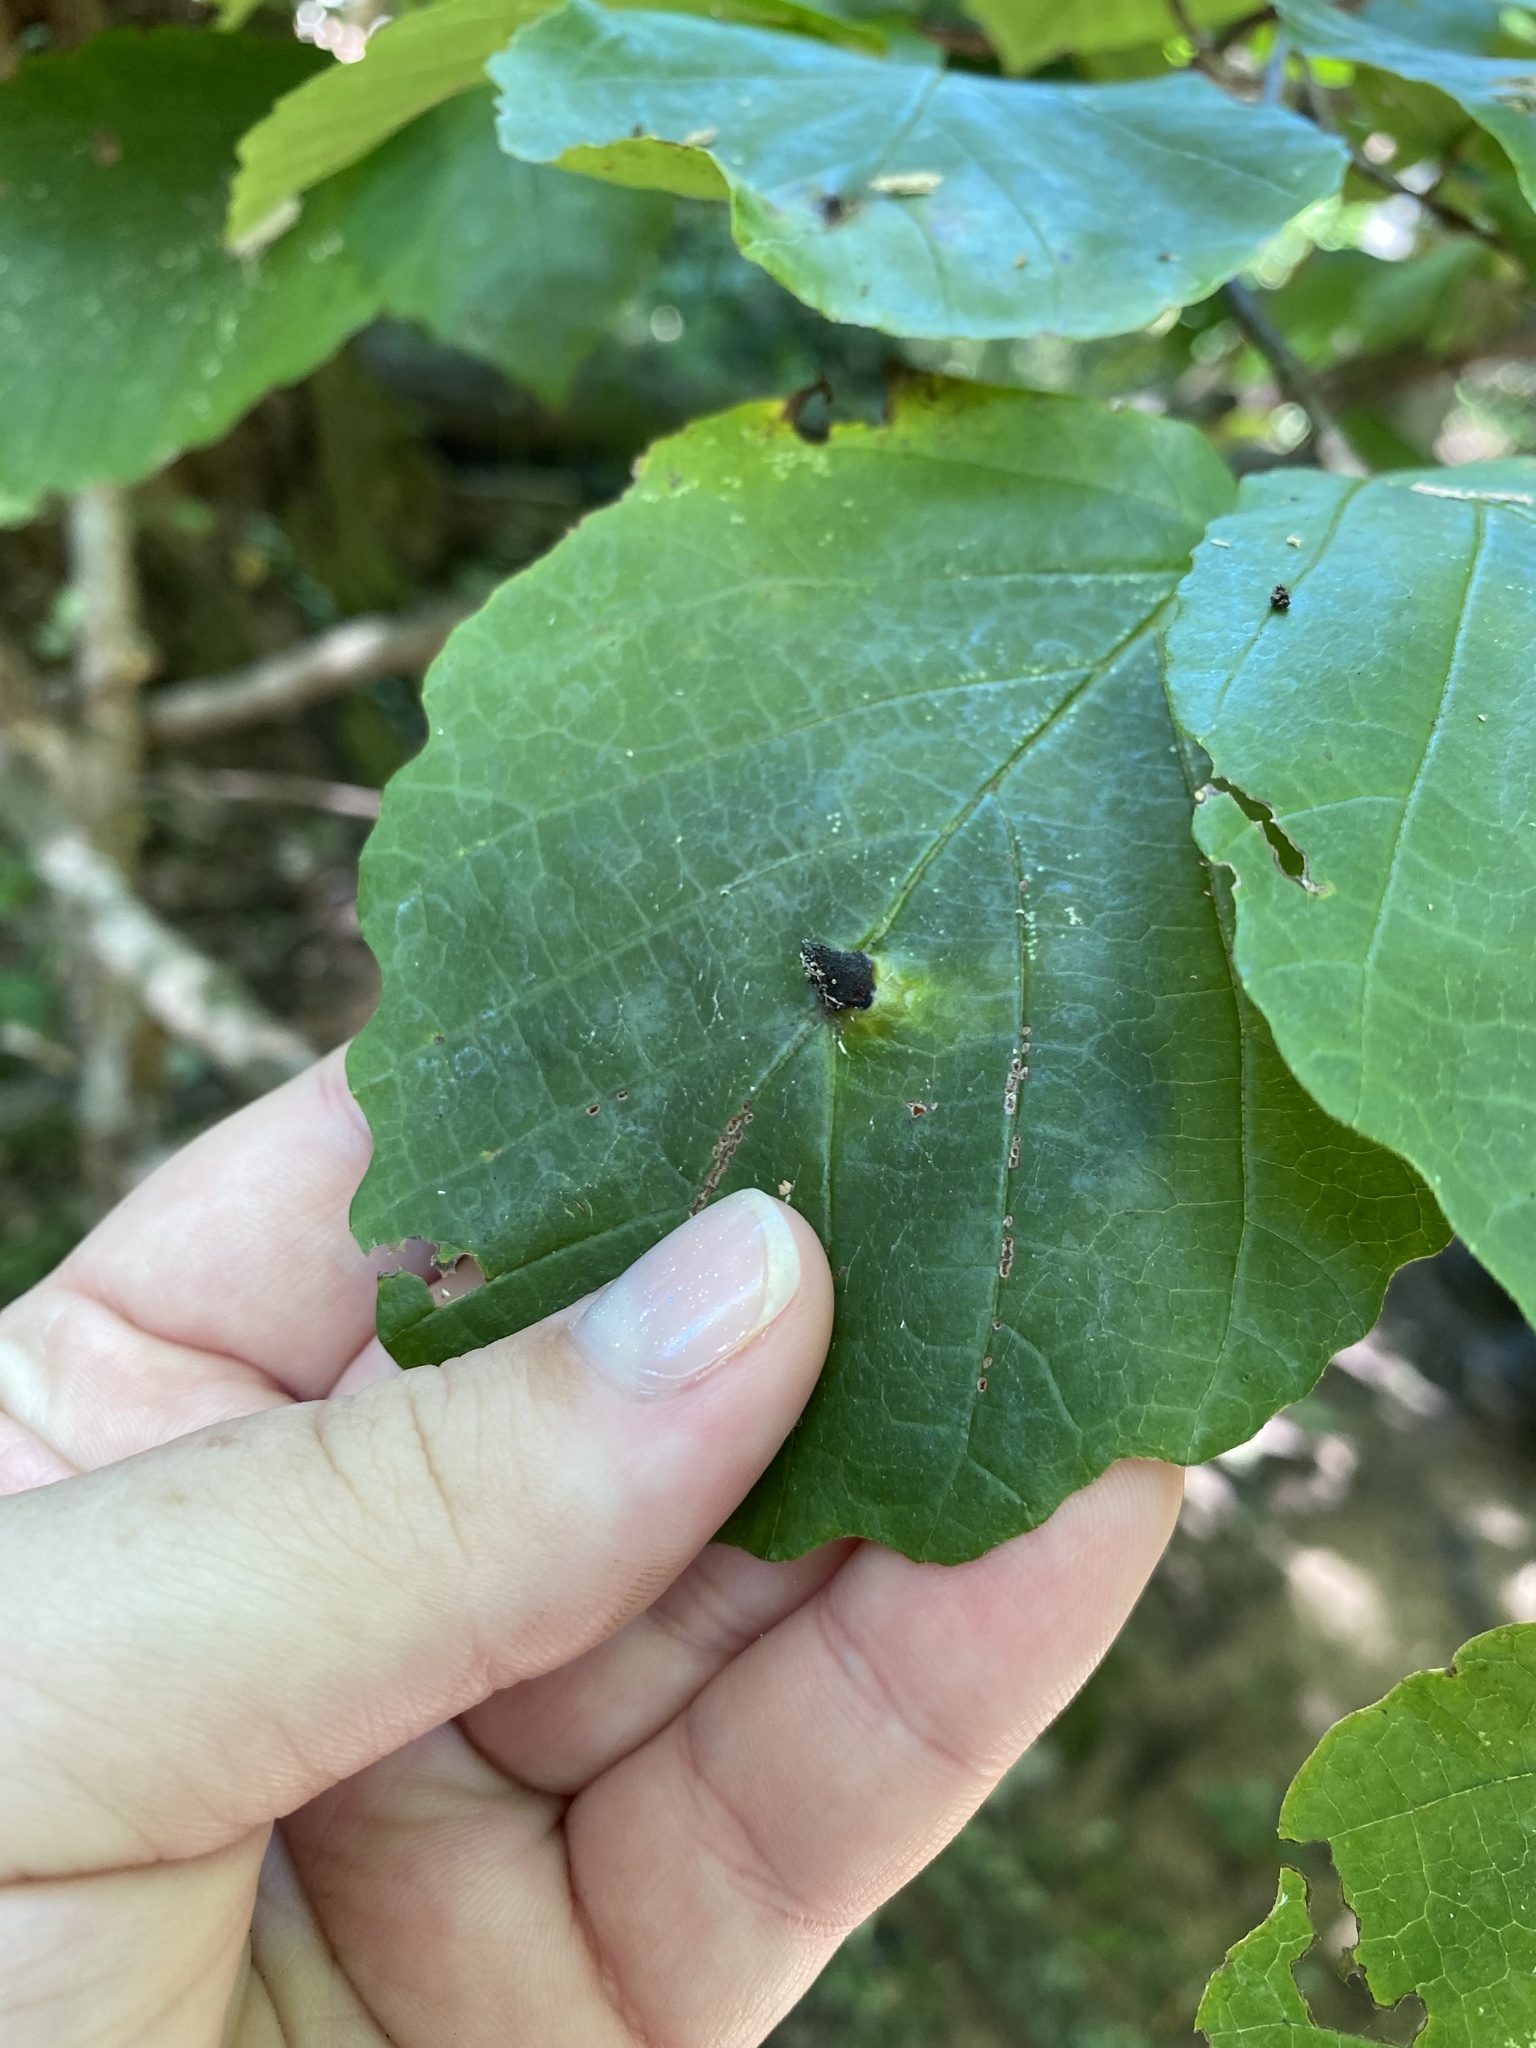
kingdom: Animalia
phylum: Arthropoda
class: Insecta
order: Hemiptera
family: Aphididae
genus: Hormaphis
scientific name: Hormaphis hamamelidis
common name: Witch-hazel cone gall aphid
